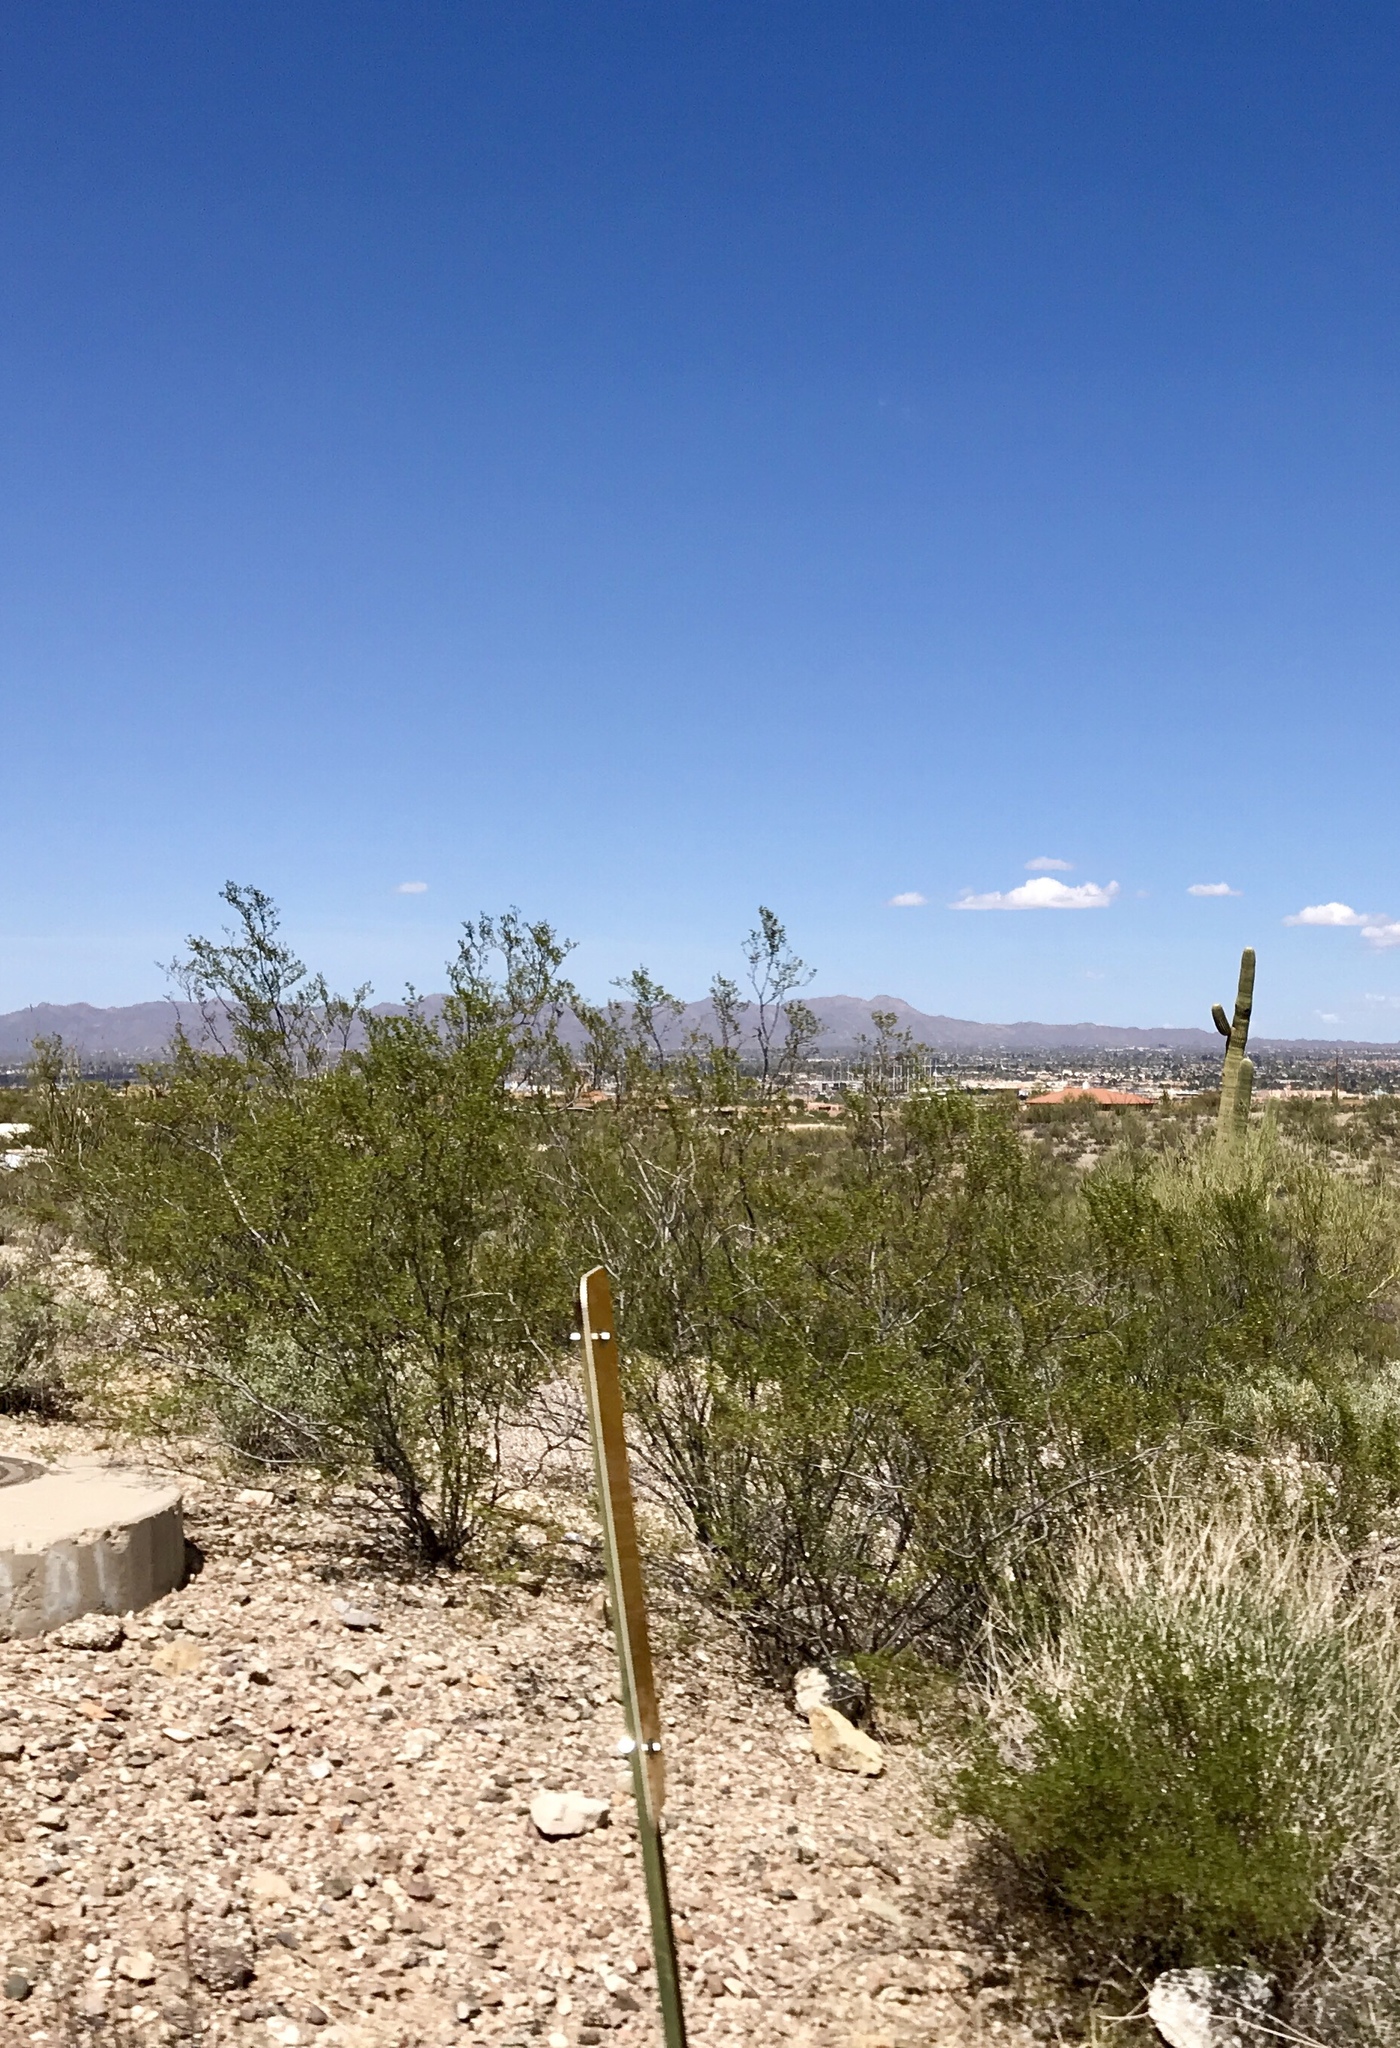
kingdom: Plantae
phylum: Tracheophyta
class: Magnoliopsida
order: Zygophyllales
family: Zygophyllaceae
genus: Larrea
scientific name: Larrea tridentata
